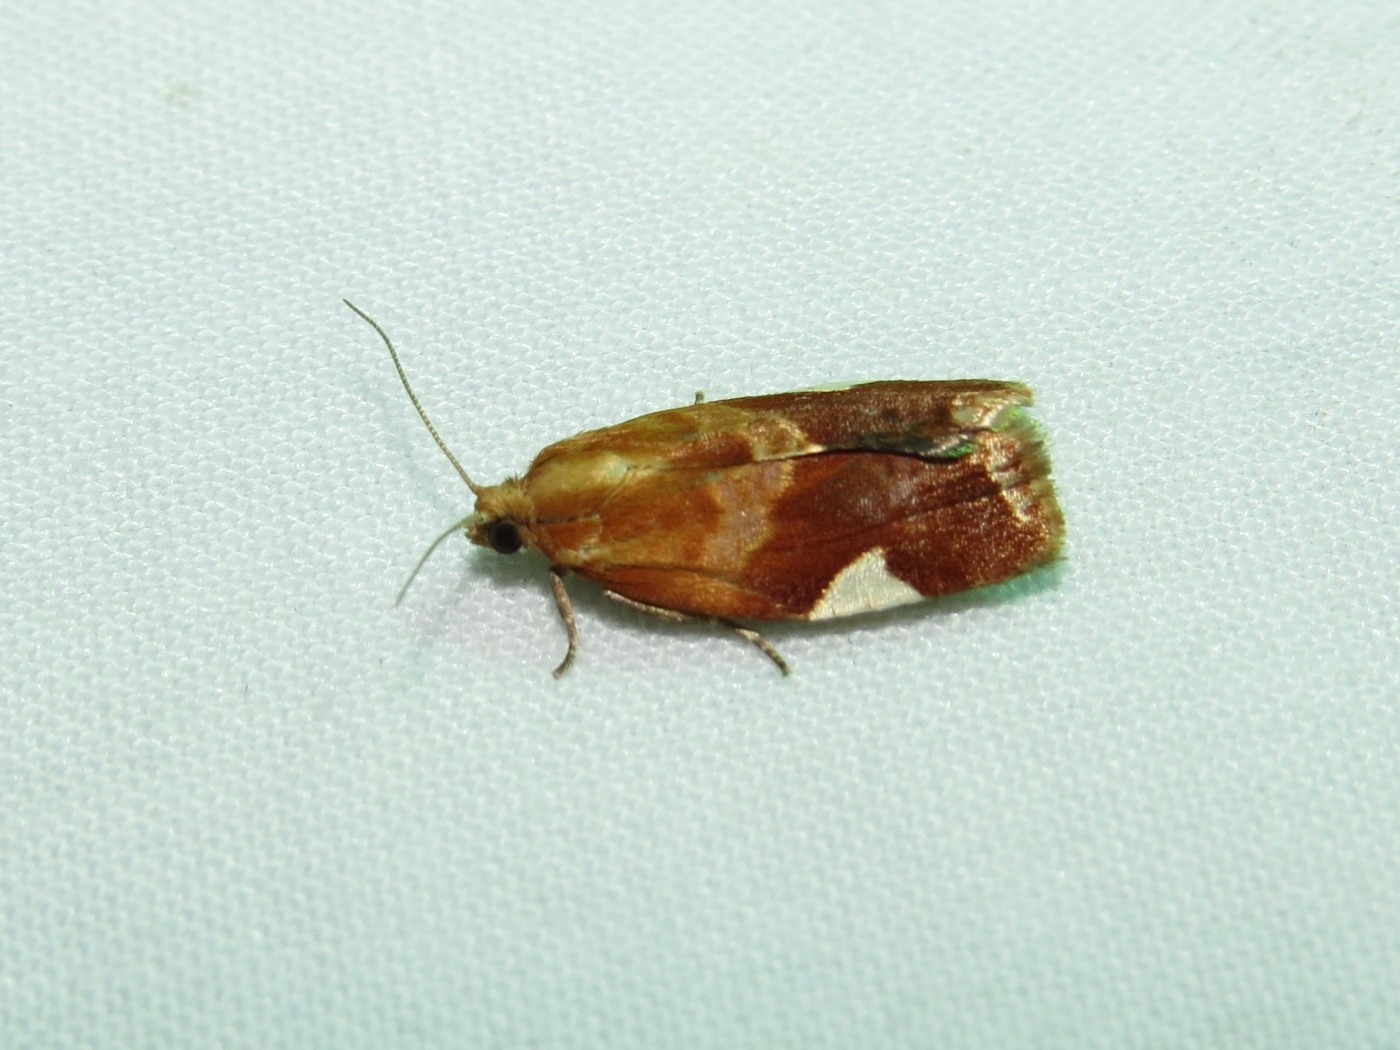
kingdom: Animalia
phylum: Arthropoda
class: Insecta
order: Lepidoptera
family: Tortricidae
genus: Clepsis
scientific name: Clepsis persicana
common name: White triangle tortrix
